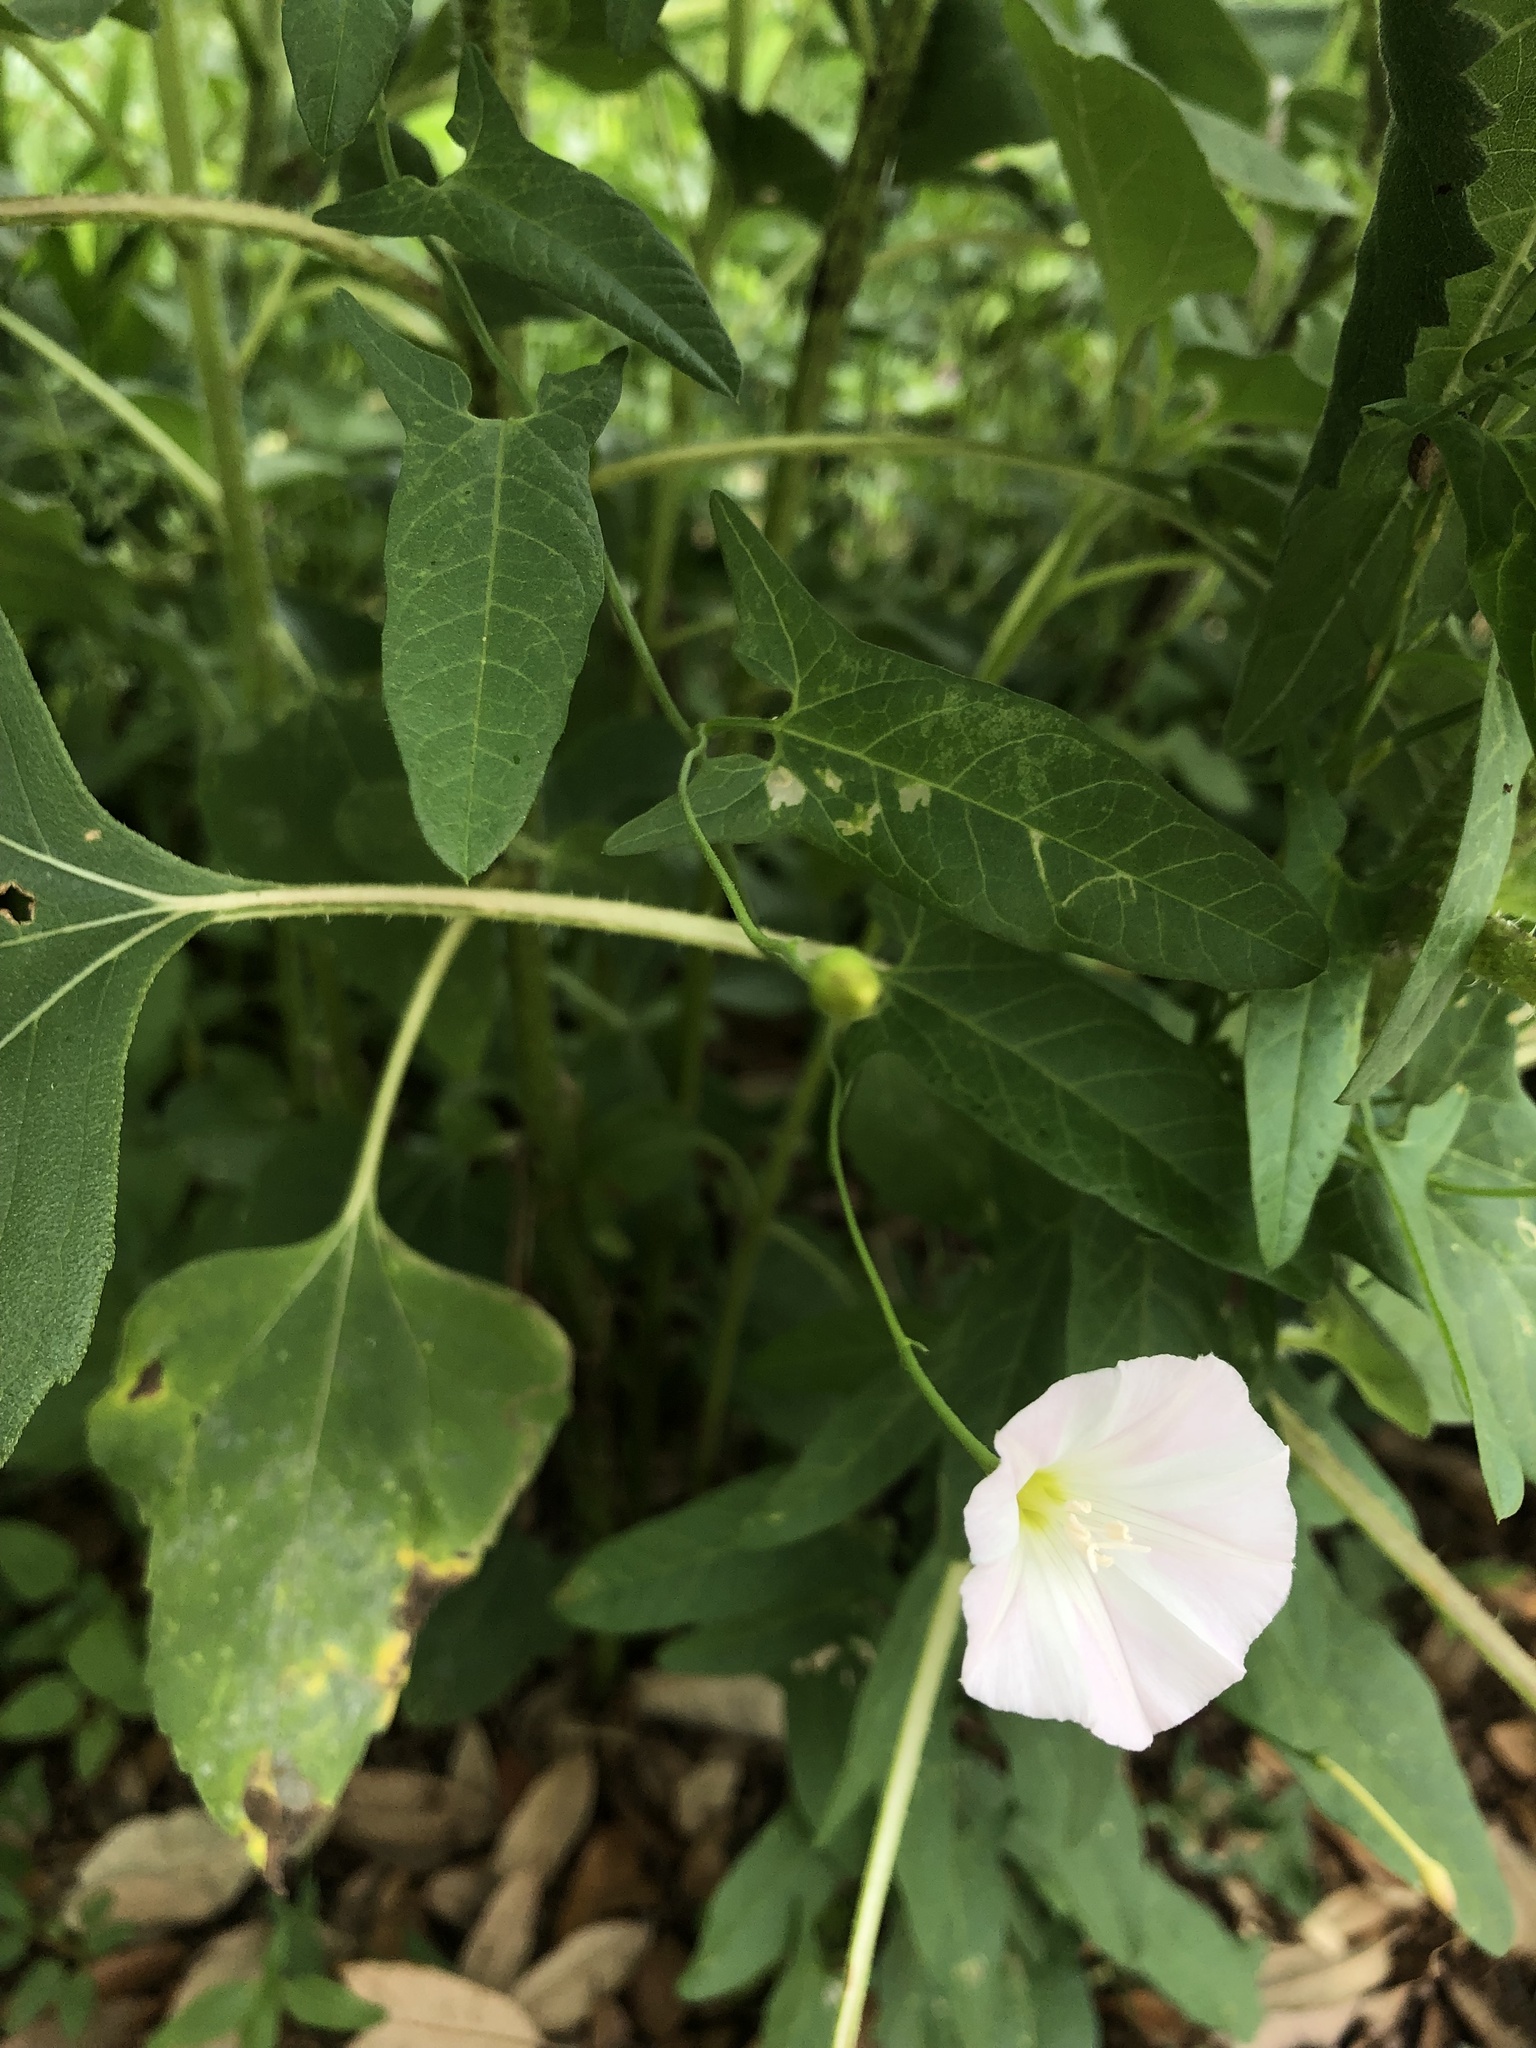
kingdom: Plantae
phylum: Tracheophyta
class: Magnoliopsida
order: Solanales
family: Convolvulaceae
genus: Convolvulus
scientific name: Convolvulus arvensis
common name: Field bindweed
